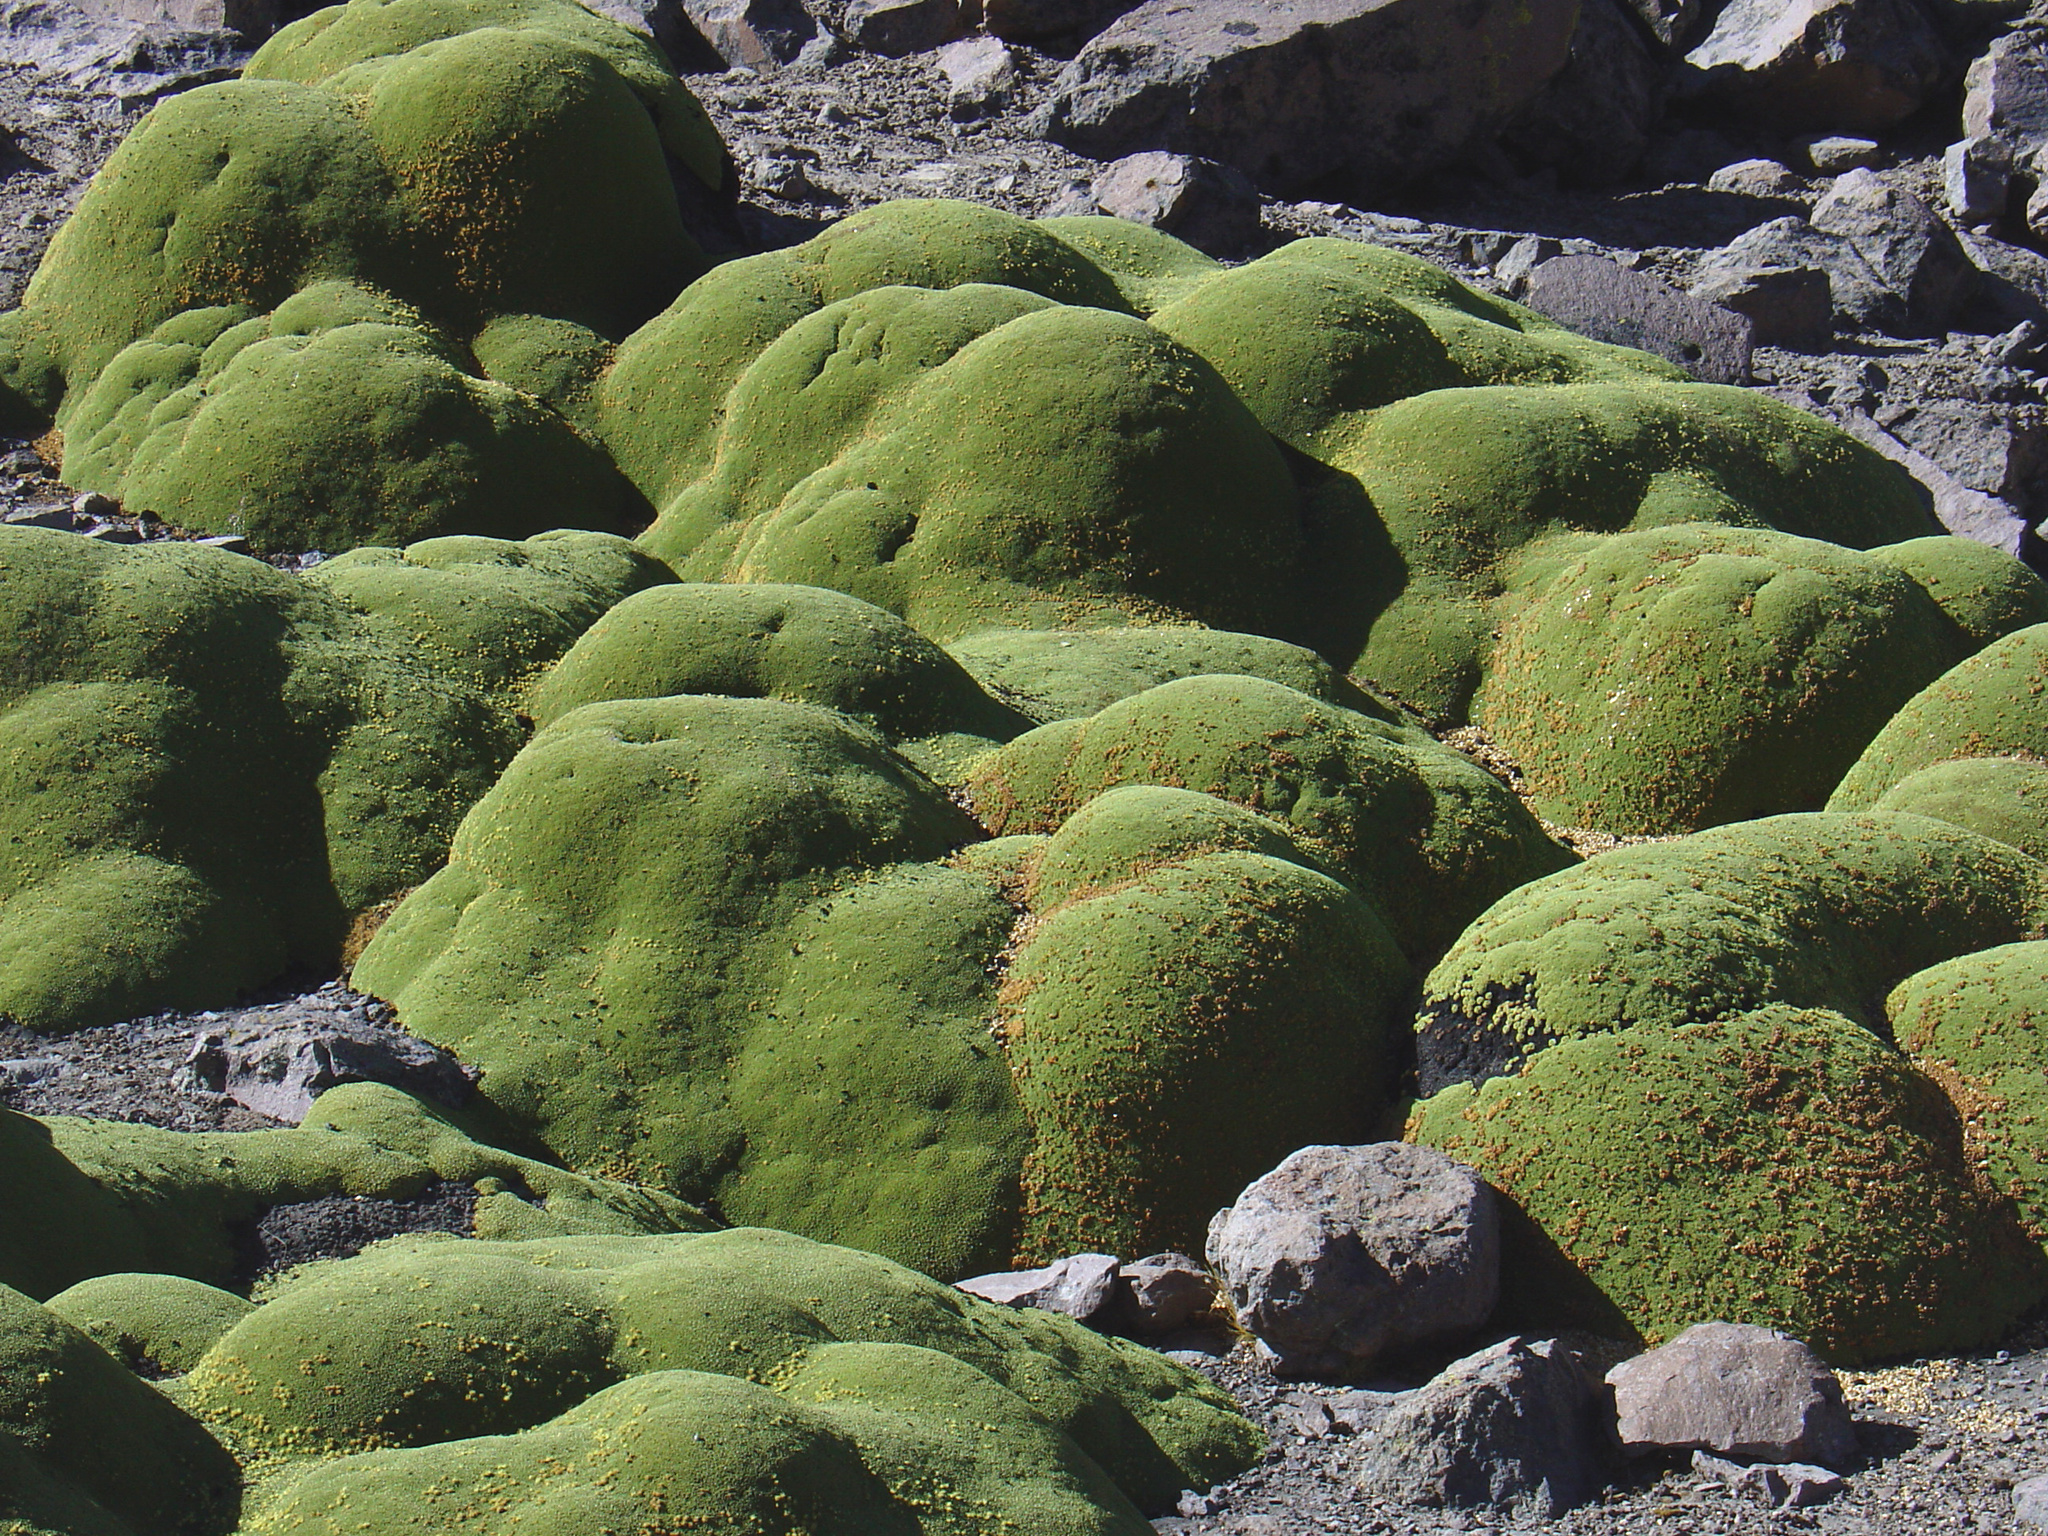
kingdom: Plantae
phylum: Tracheophyta
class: Magnoliopsida
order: Apiales
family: Apiaceae
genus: Azorella
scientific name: Azorella compacta
